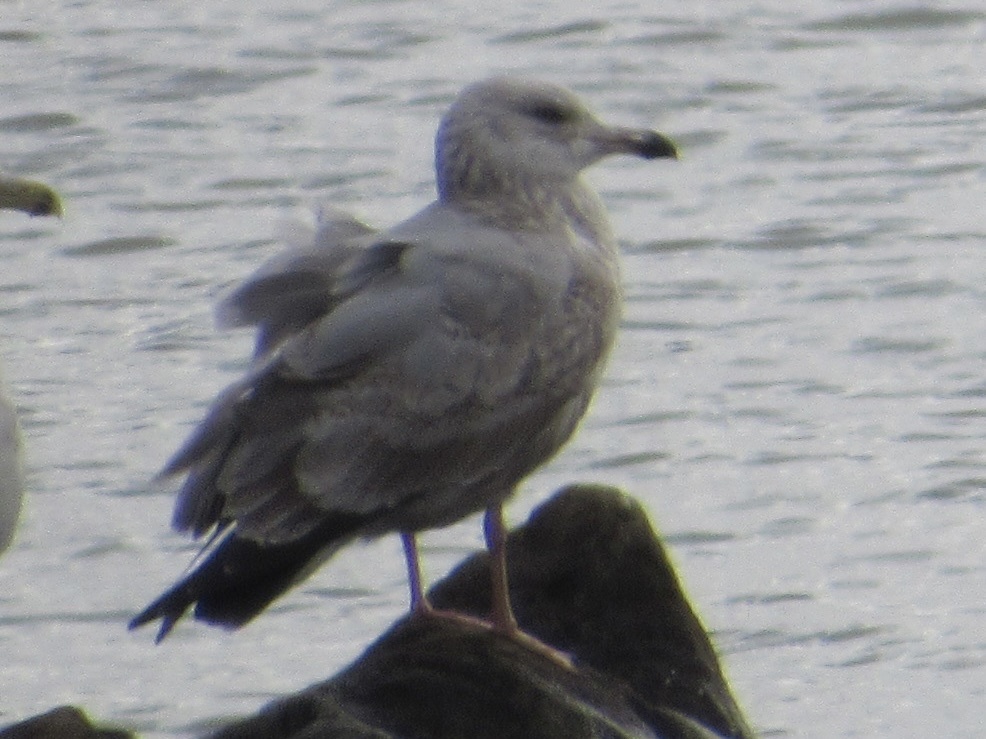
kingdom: Animalia
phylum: Chordata
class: Aves
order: Charadriiformes
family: Laridae
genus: Larus
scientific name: Larus argentatus
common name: Herring gull
